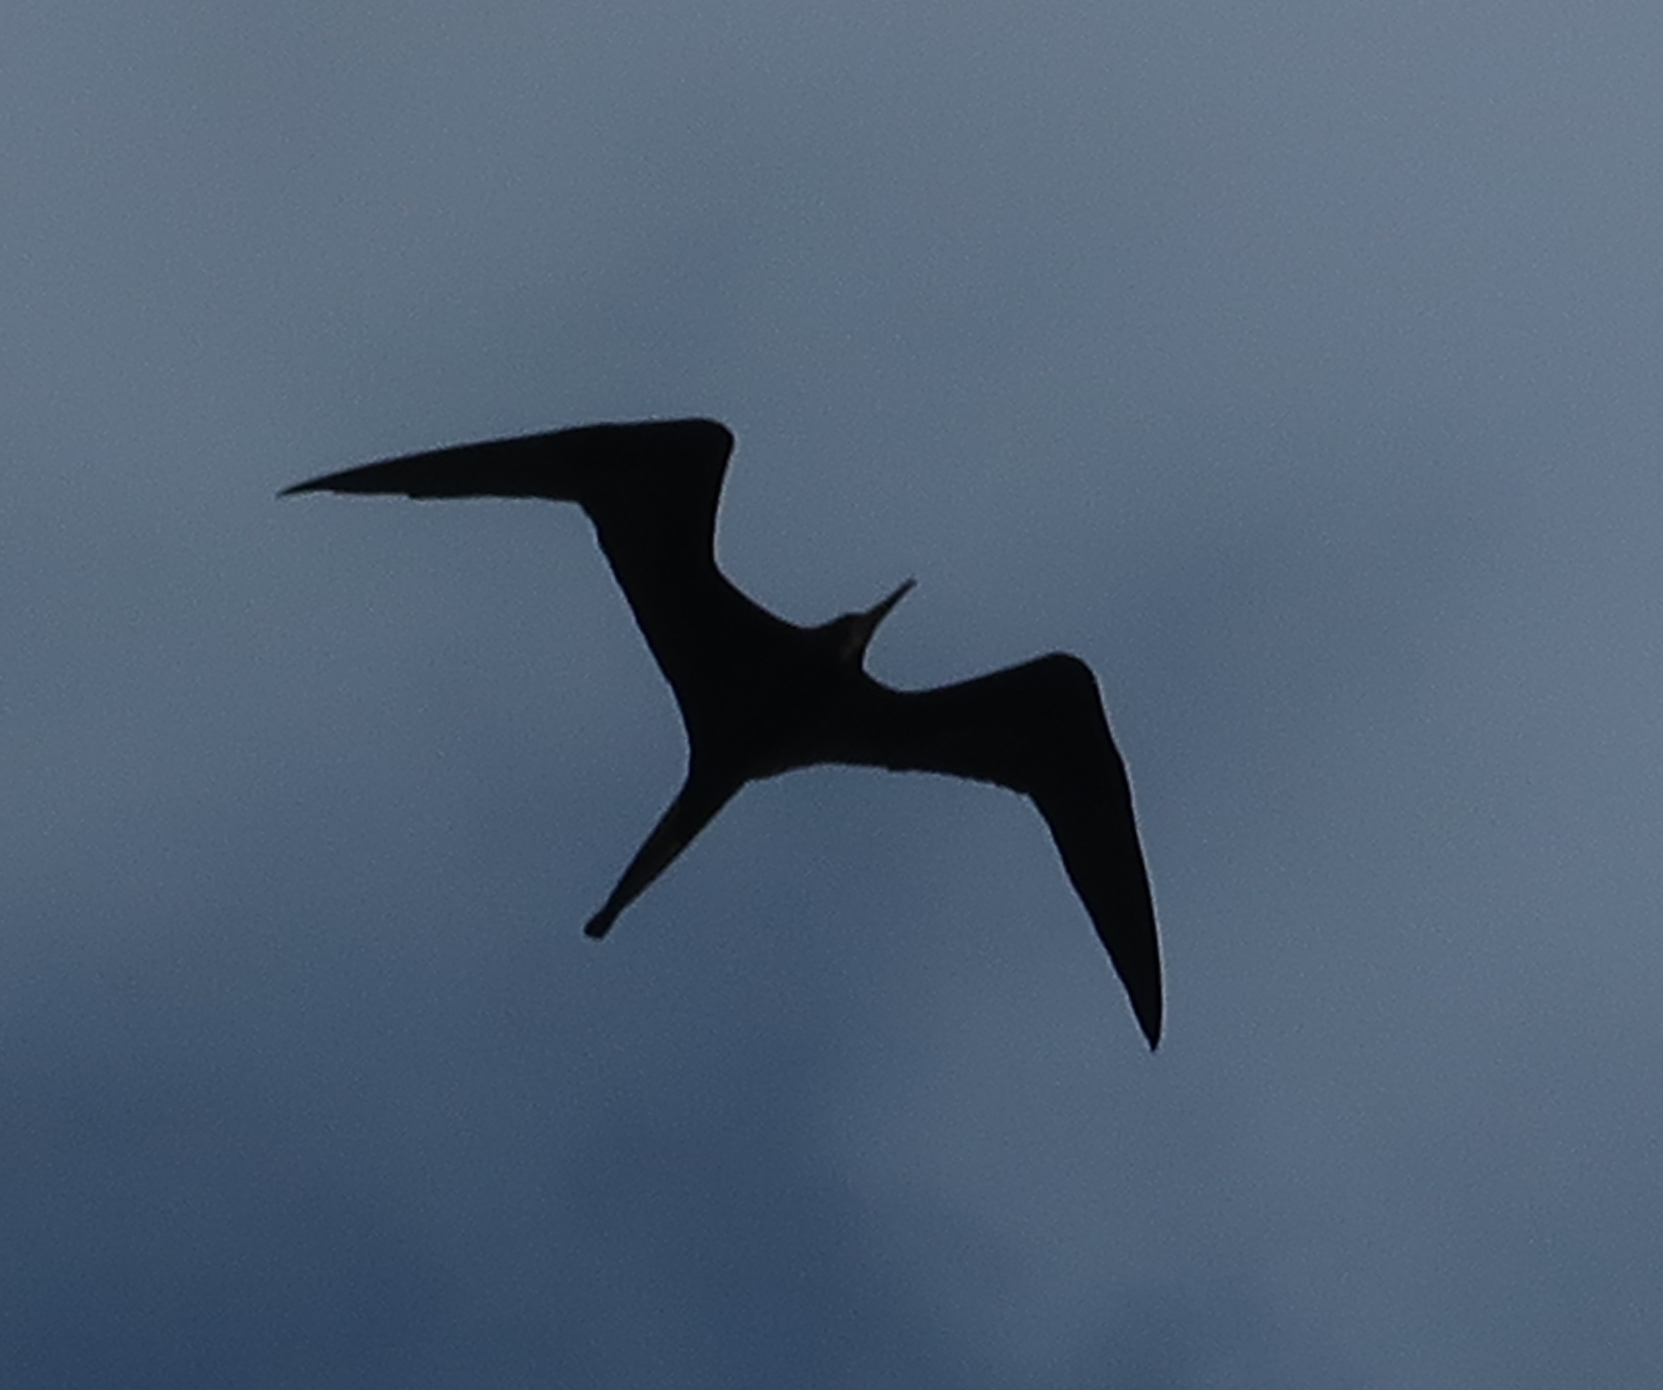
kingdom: Animalia
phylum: Chordata
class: Aves
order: Suliformes
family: Fregatidae
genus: Fregata
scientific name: Fregata magnificens
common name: Magnificent frigatebird
